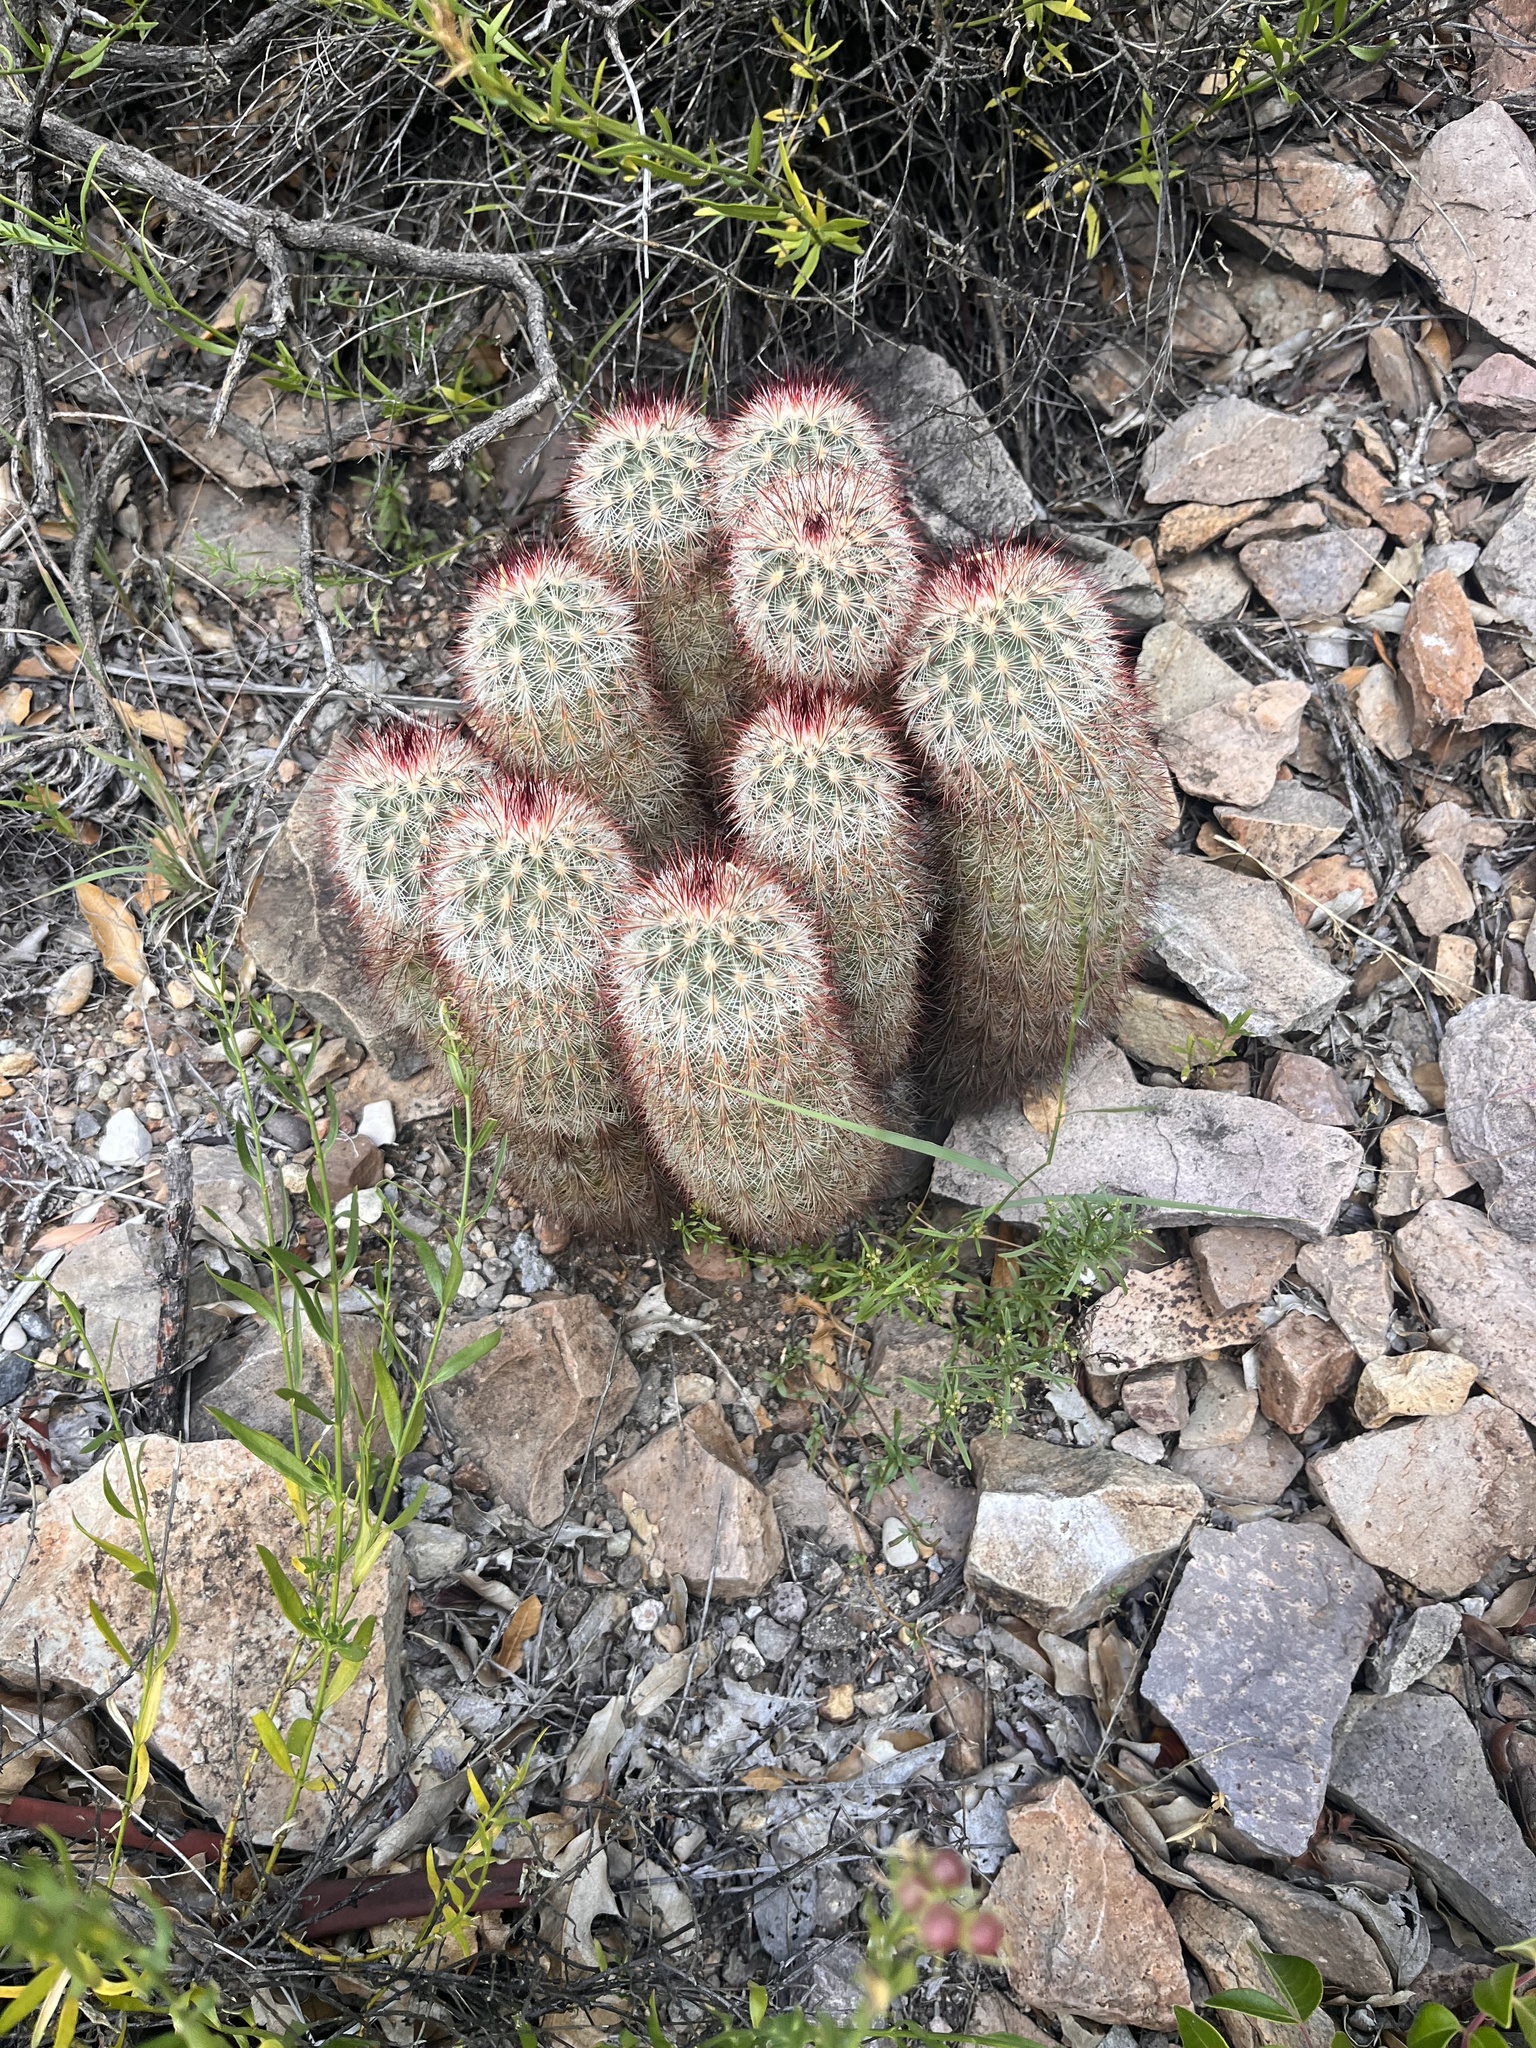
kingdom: Plantae
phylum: Tracheophyta
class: Magnoliopsida
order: Caryophyllales
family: Cactaceae
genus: Echinocereus
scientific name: Echinocereus russanthus
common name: Brownspine hedgehog cactus
